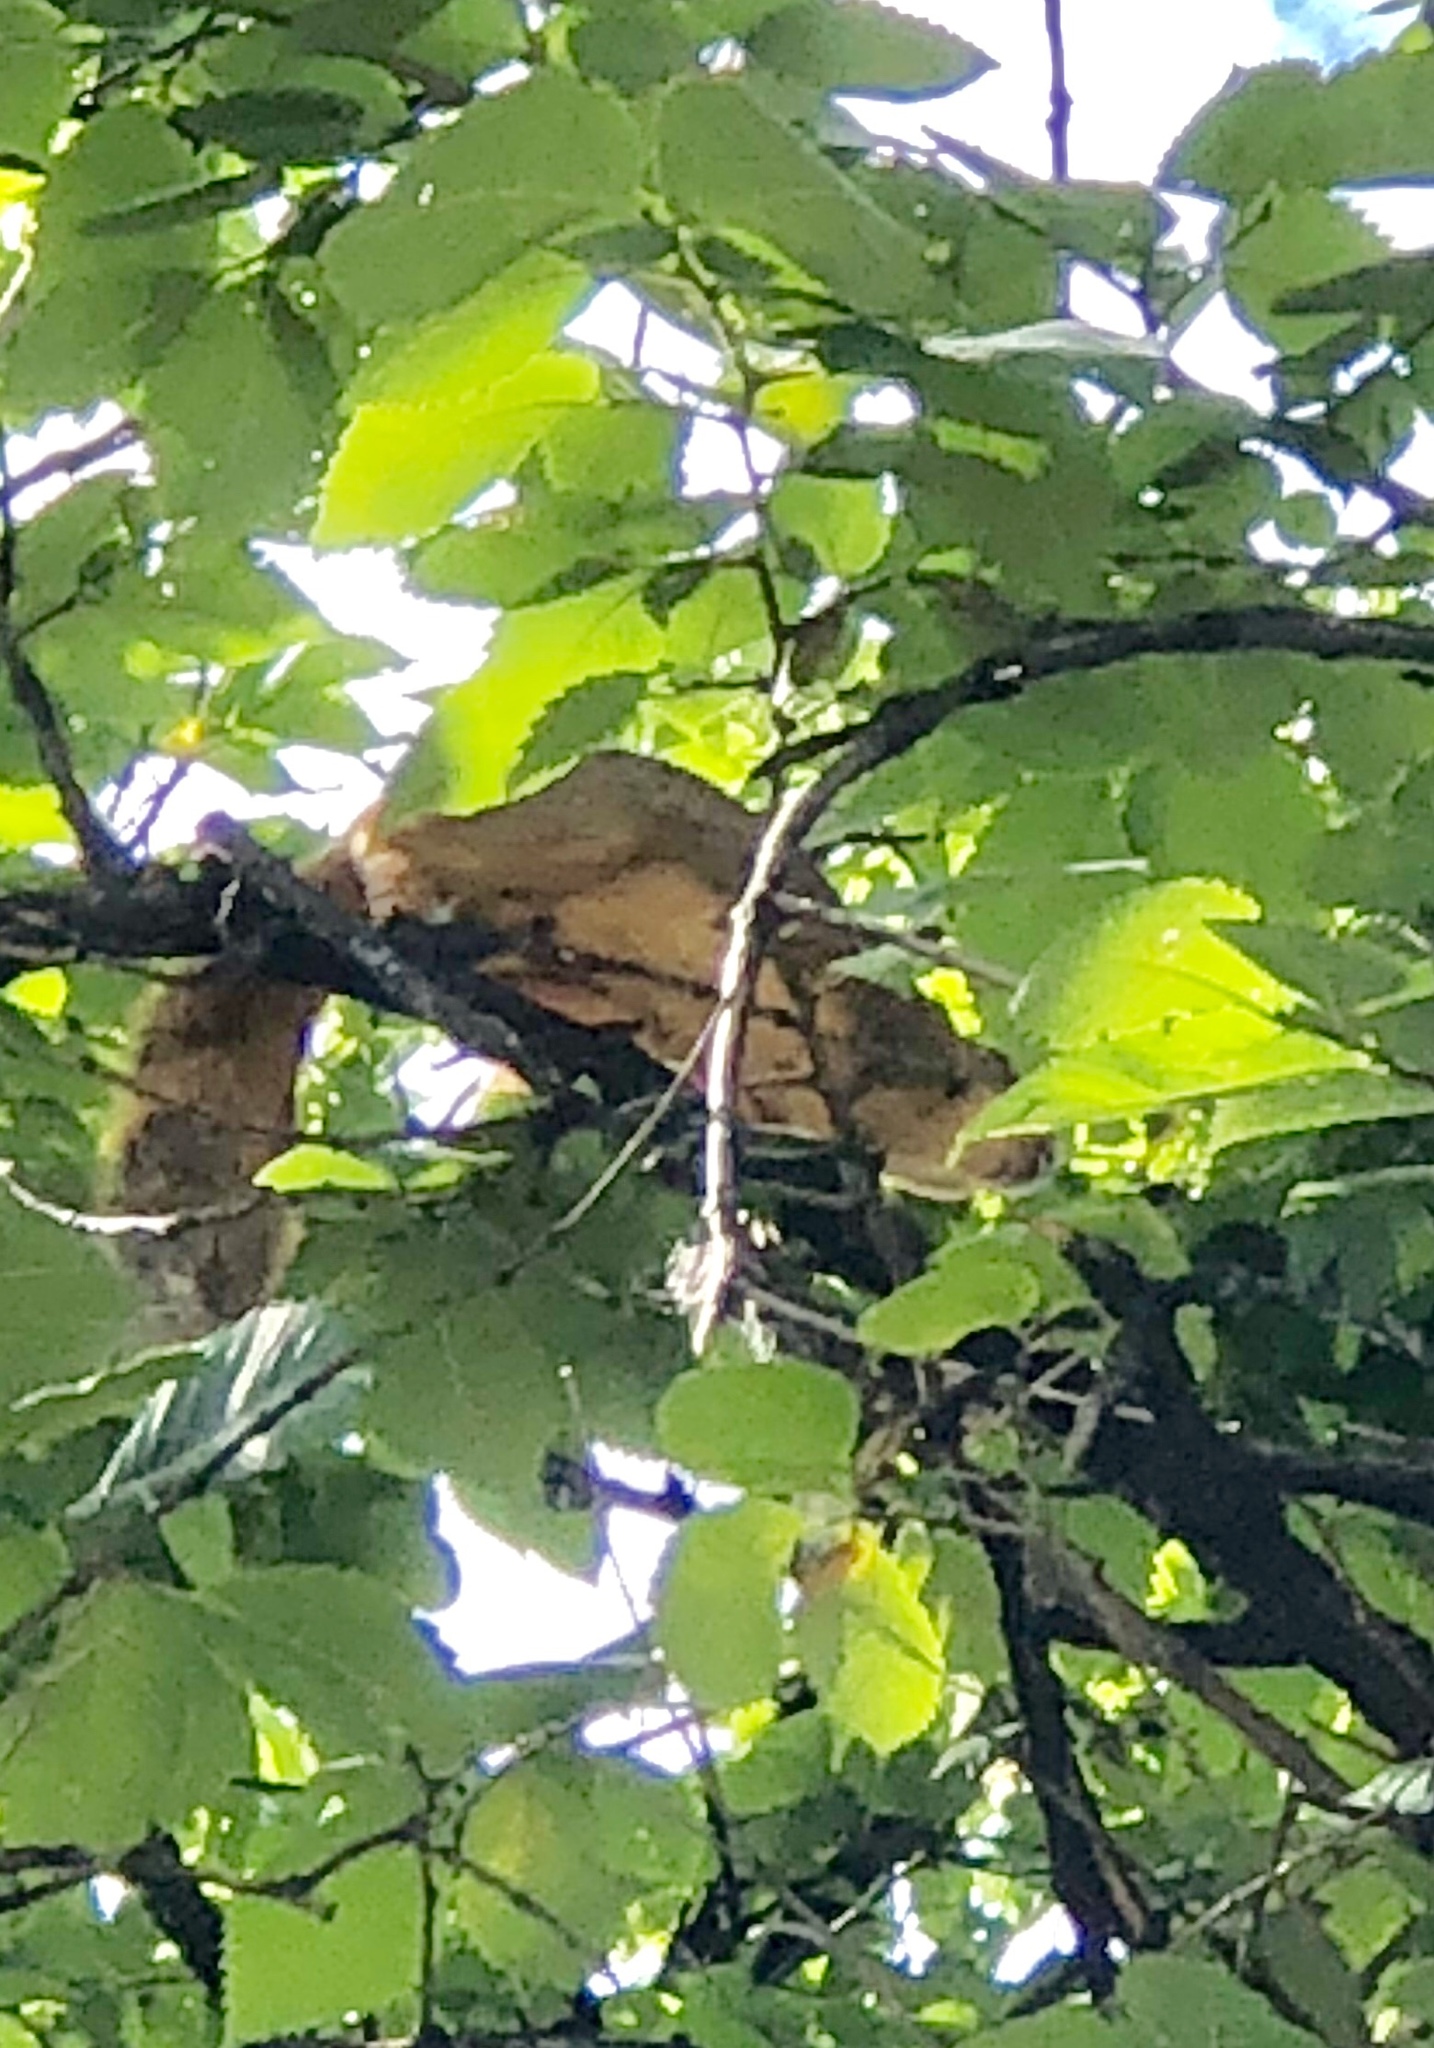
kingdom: Animalia
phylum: Chordata
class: Mammalia
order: Rodentia
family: Sciuridae
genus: Sciurus
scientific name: Sciurus niger
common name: Fox squirrel
